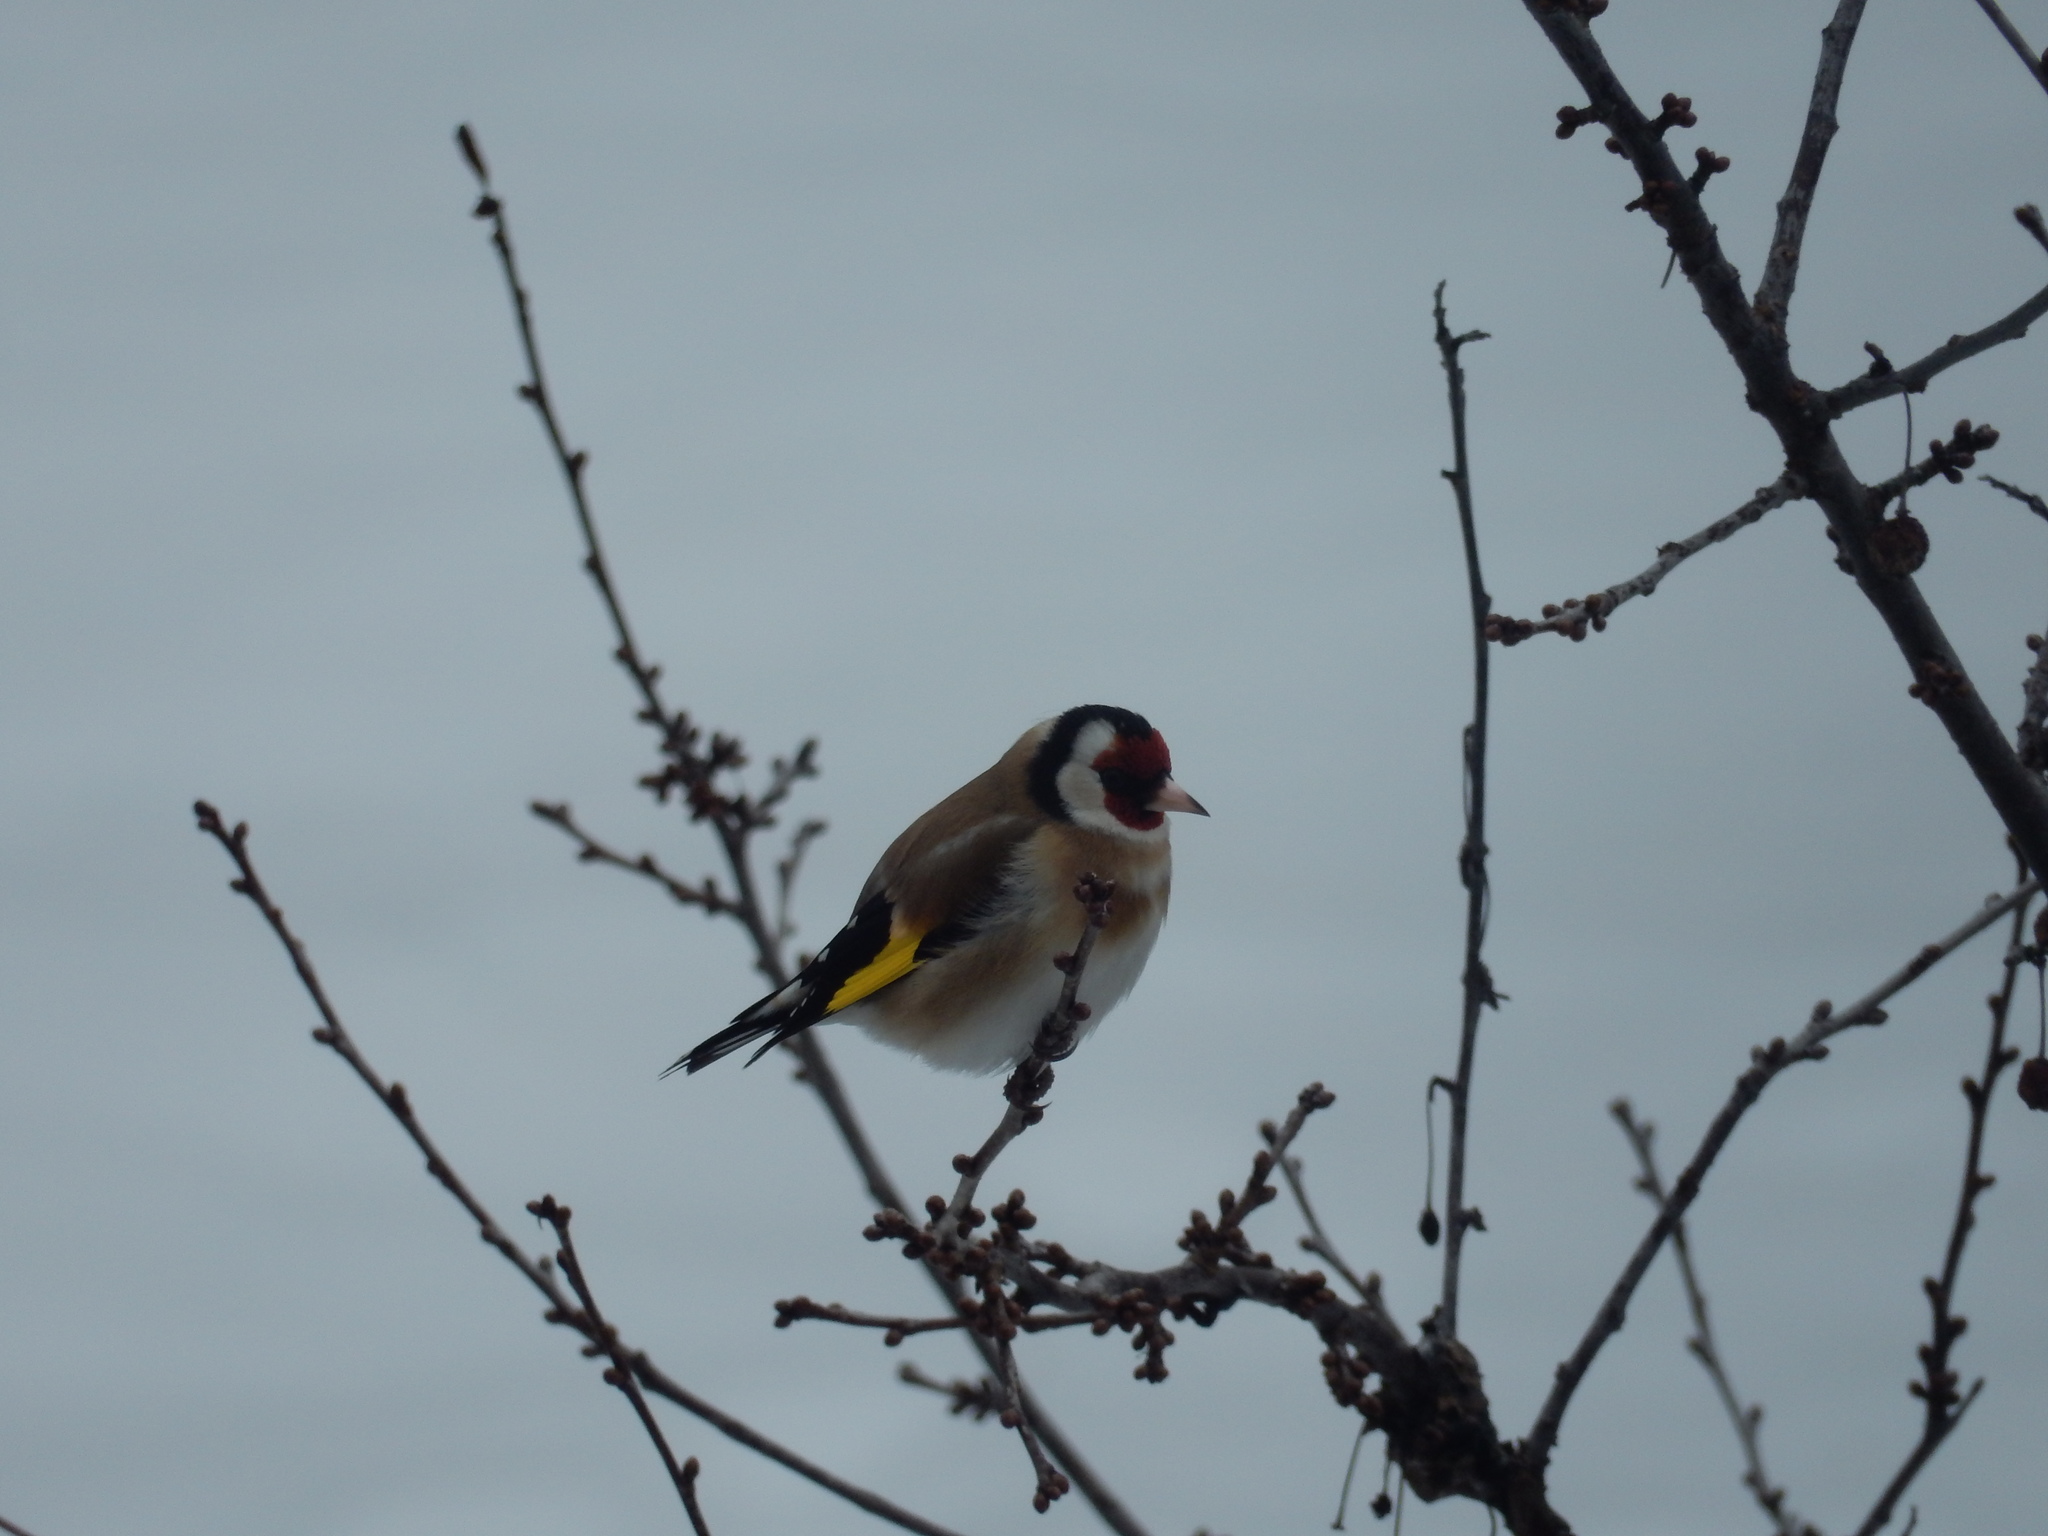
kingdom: Animalia
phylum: Chordata
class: Aves
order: Passeriformes
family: Fringillidae
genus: Carduelis
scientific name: Carduelis carduelis
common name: European goldfinch
